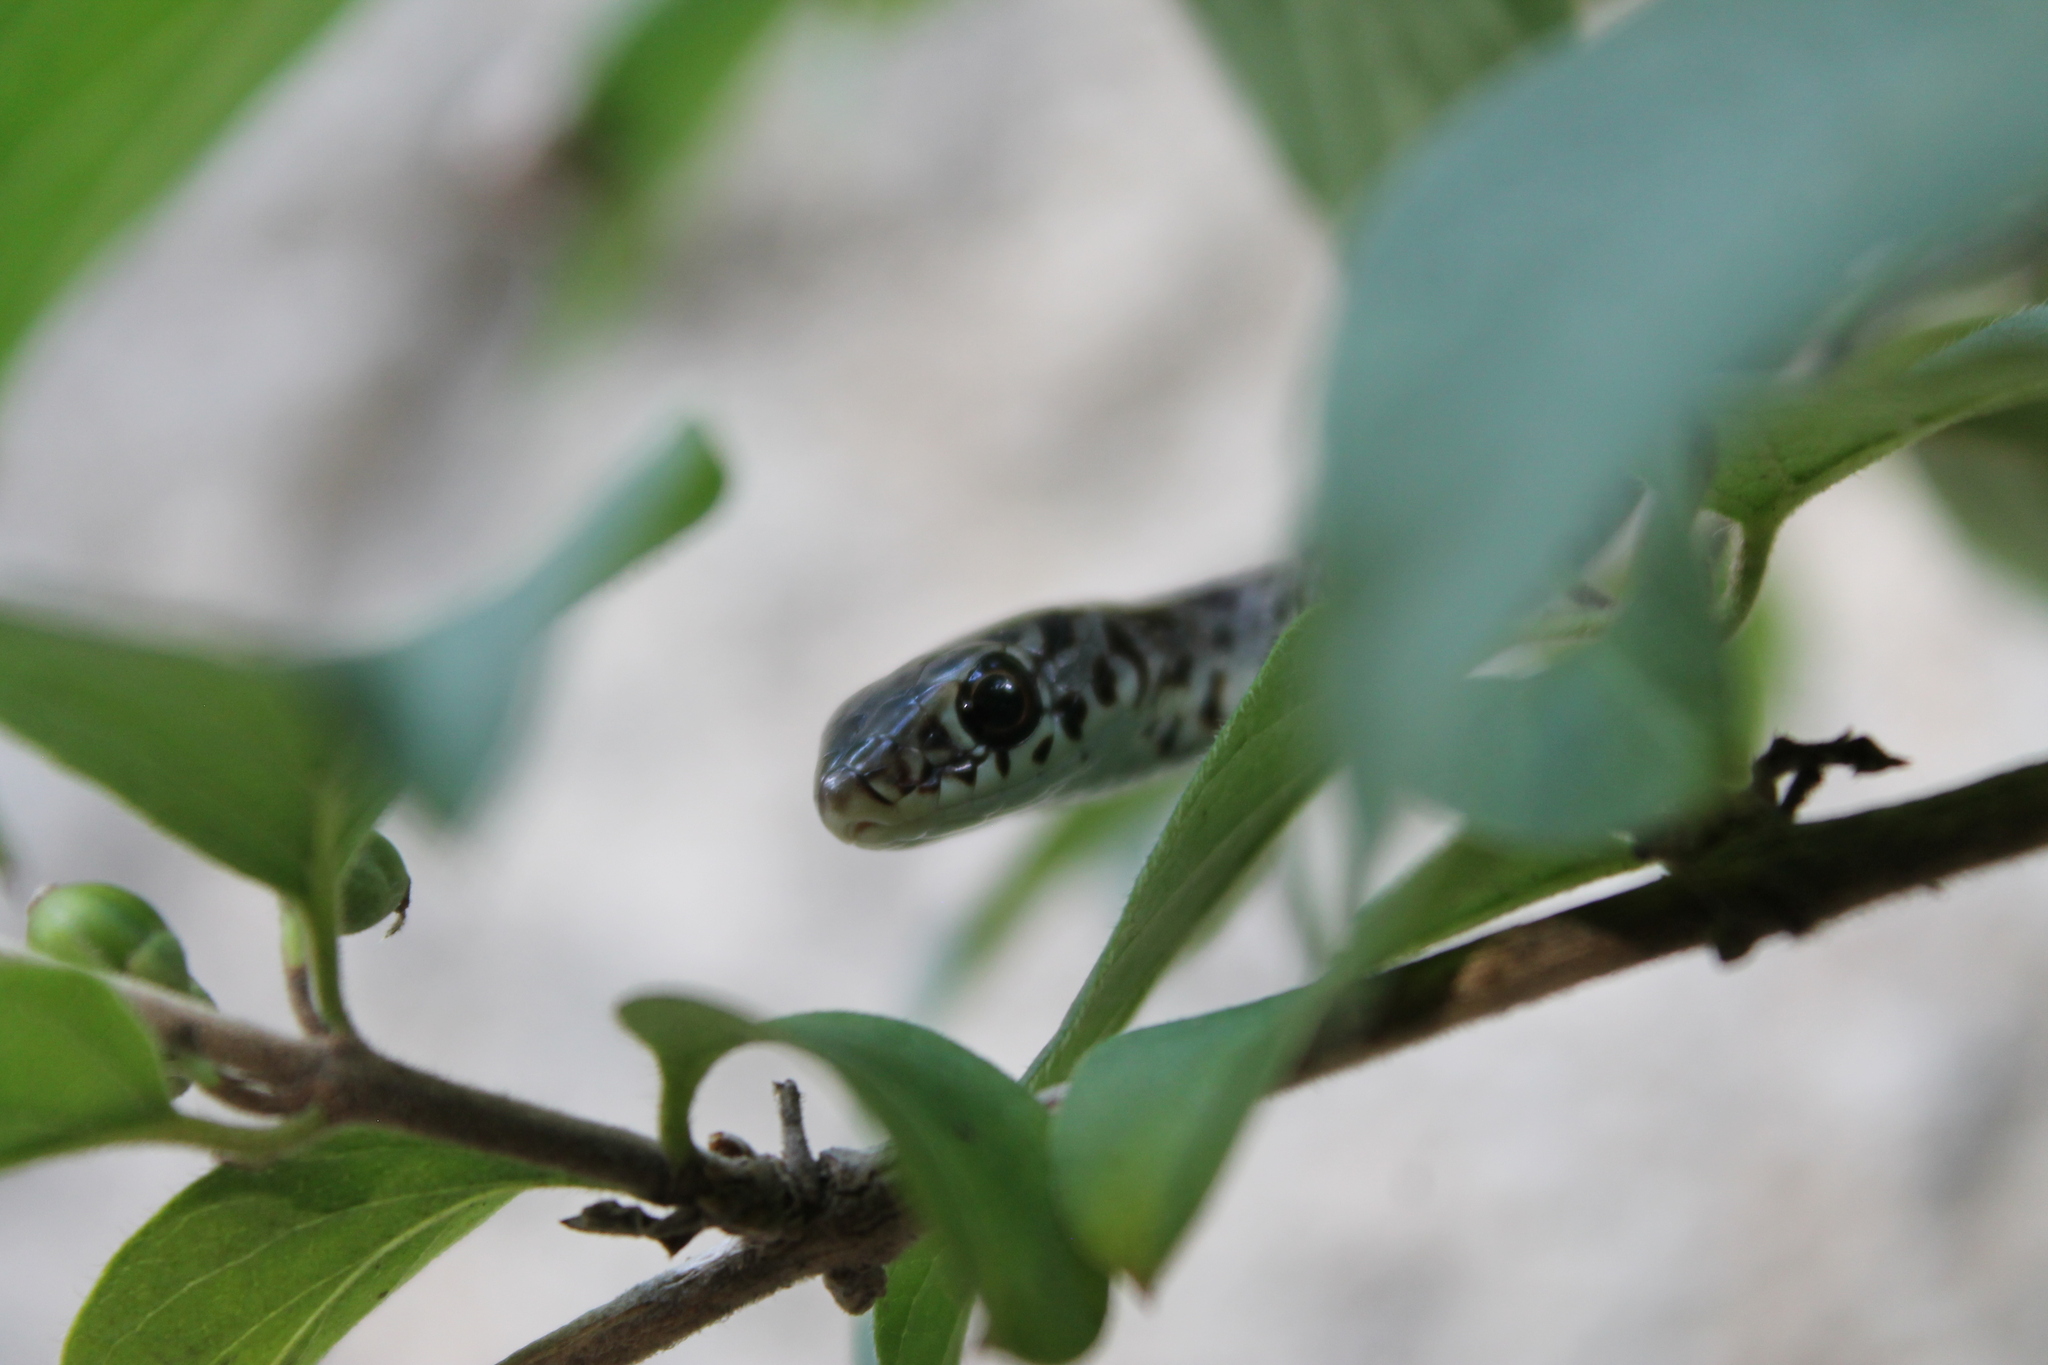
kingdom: Animalia
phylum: Chordata
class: Squamata
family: Colubridae
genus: Coluber
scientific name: Coluber constrictor
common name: Eastern racer
